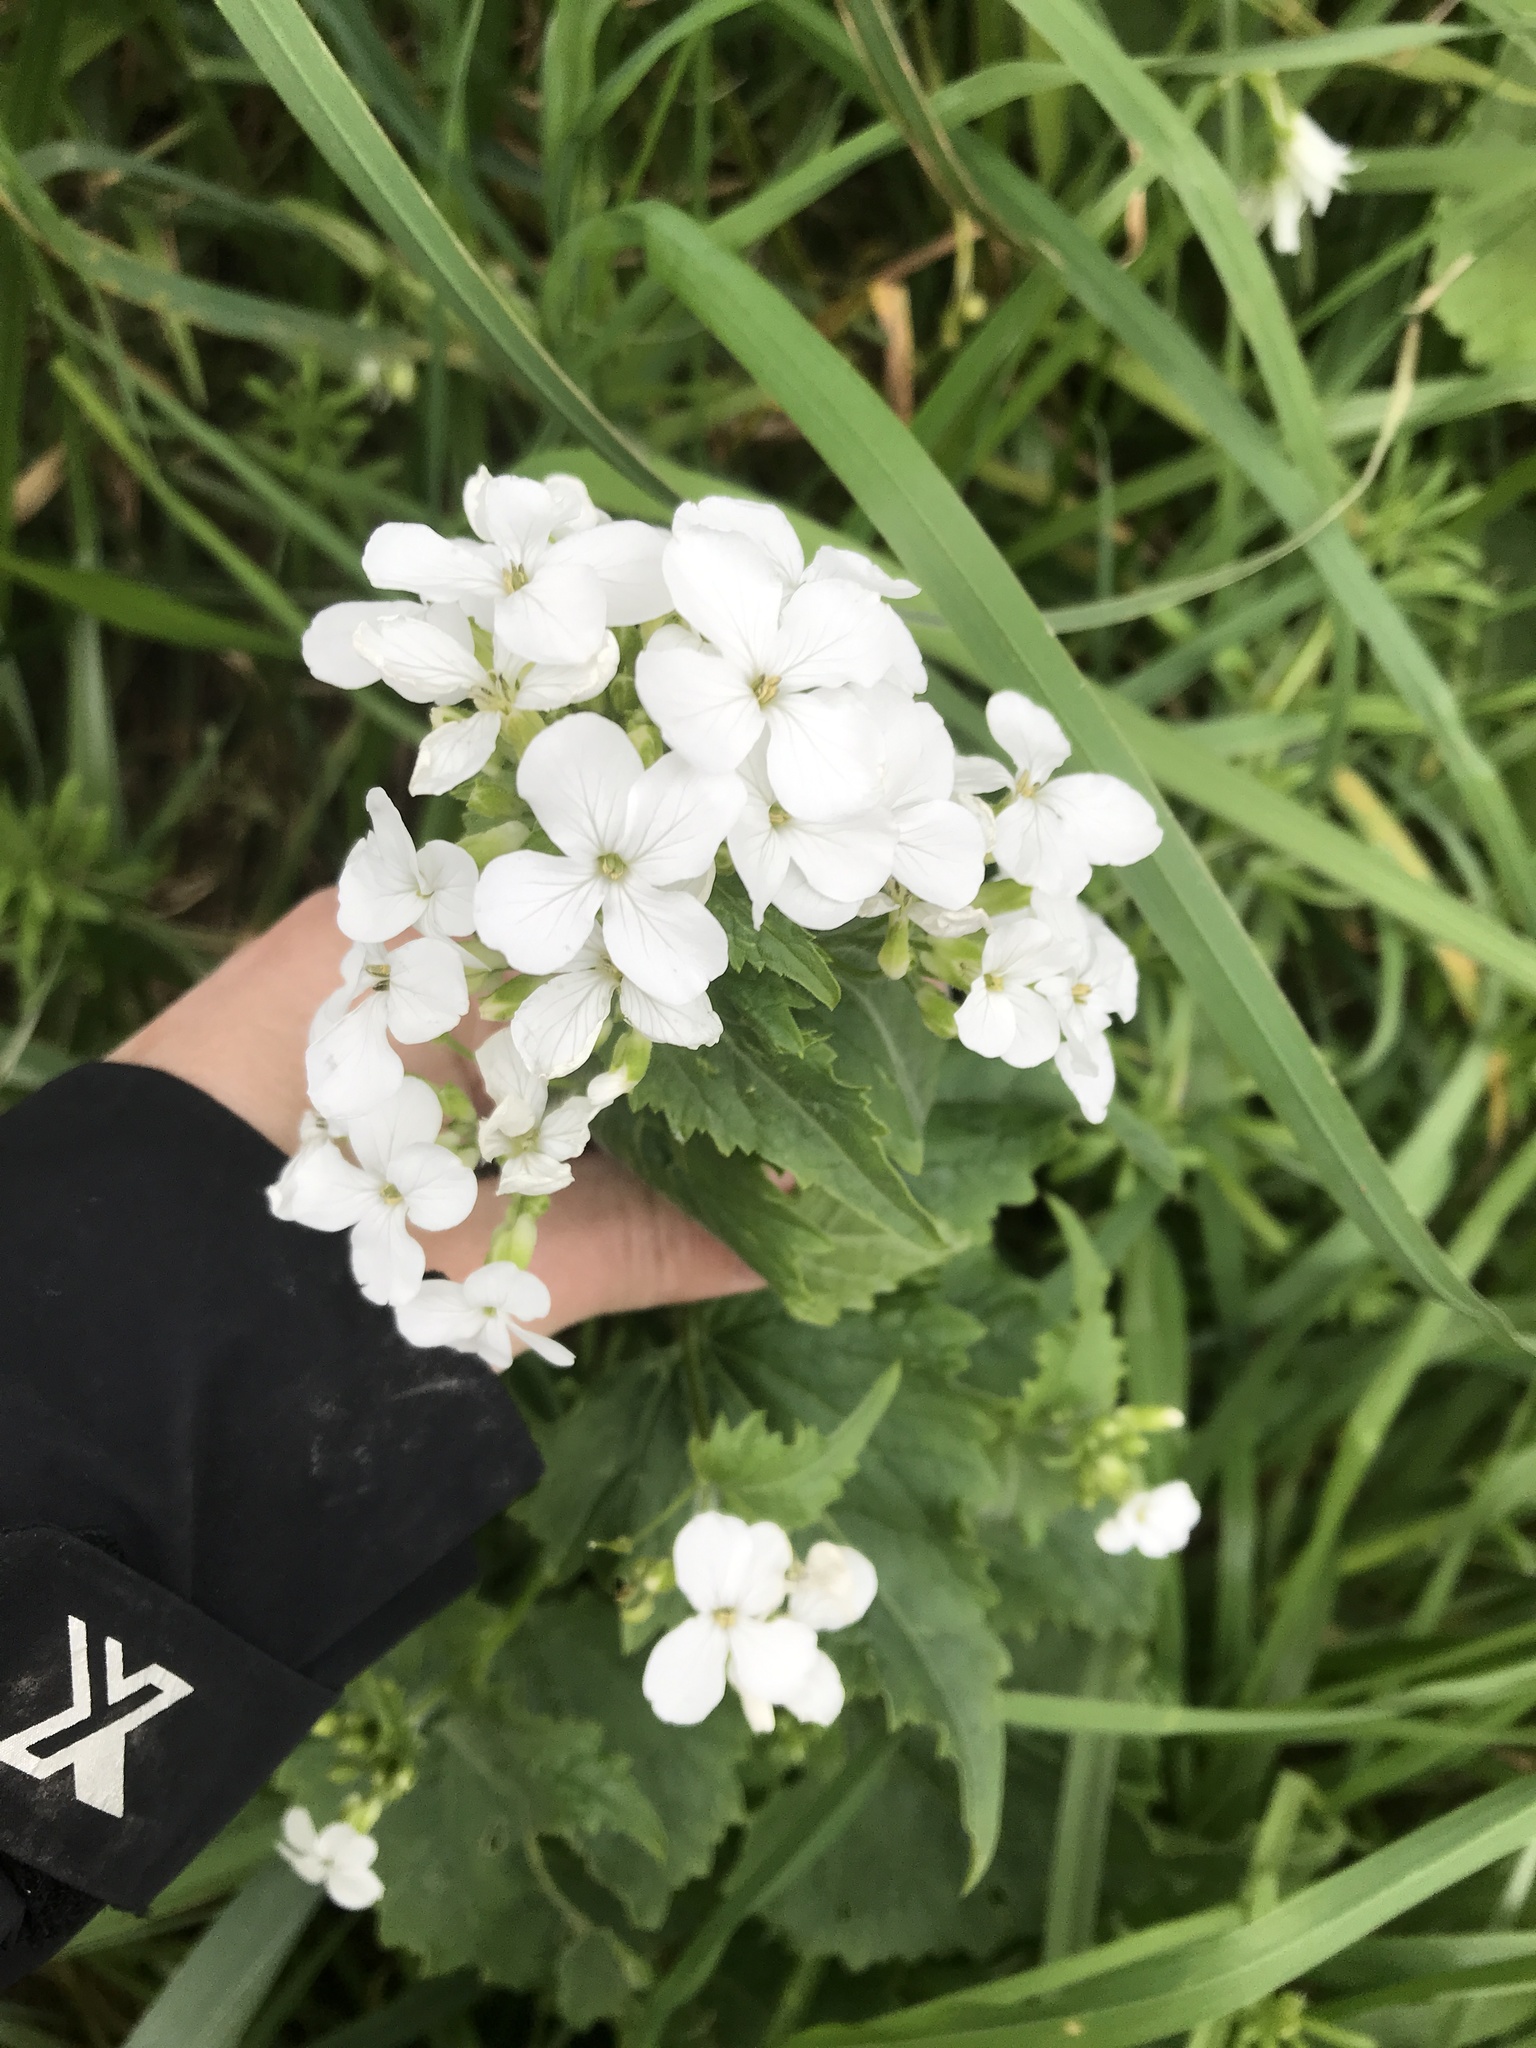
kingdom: Plantae
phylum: Tracheophyta
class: Magnoliopsida
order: Brassicales
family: Brassicaceae
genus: Lunaria
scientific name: Lunaria annua
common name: Honesty
